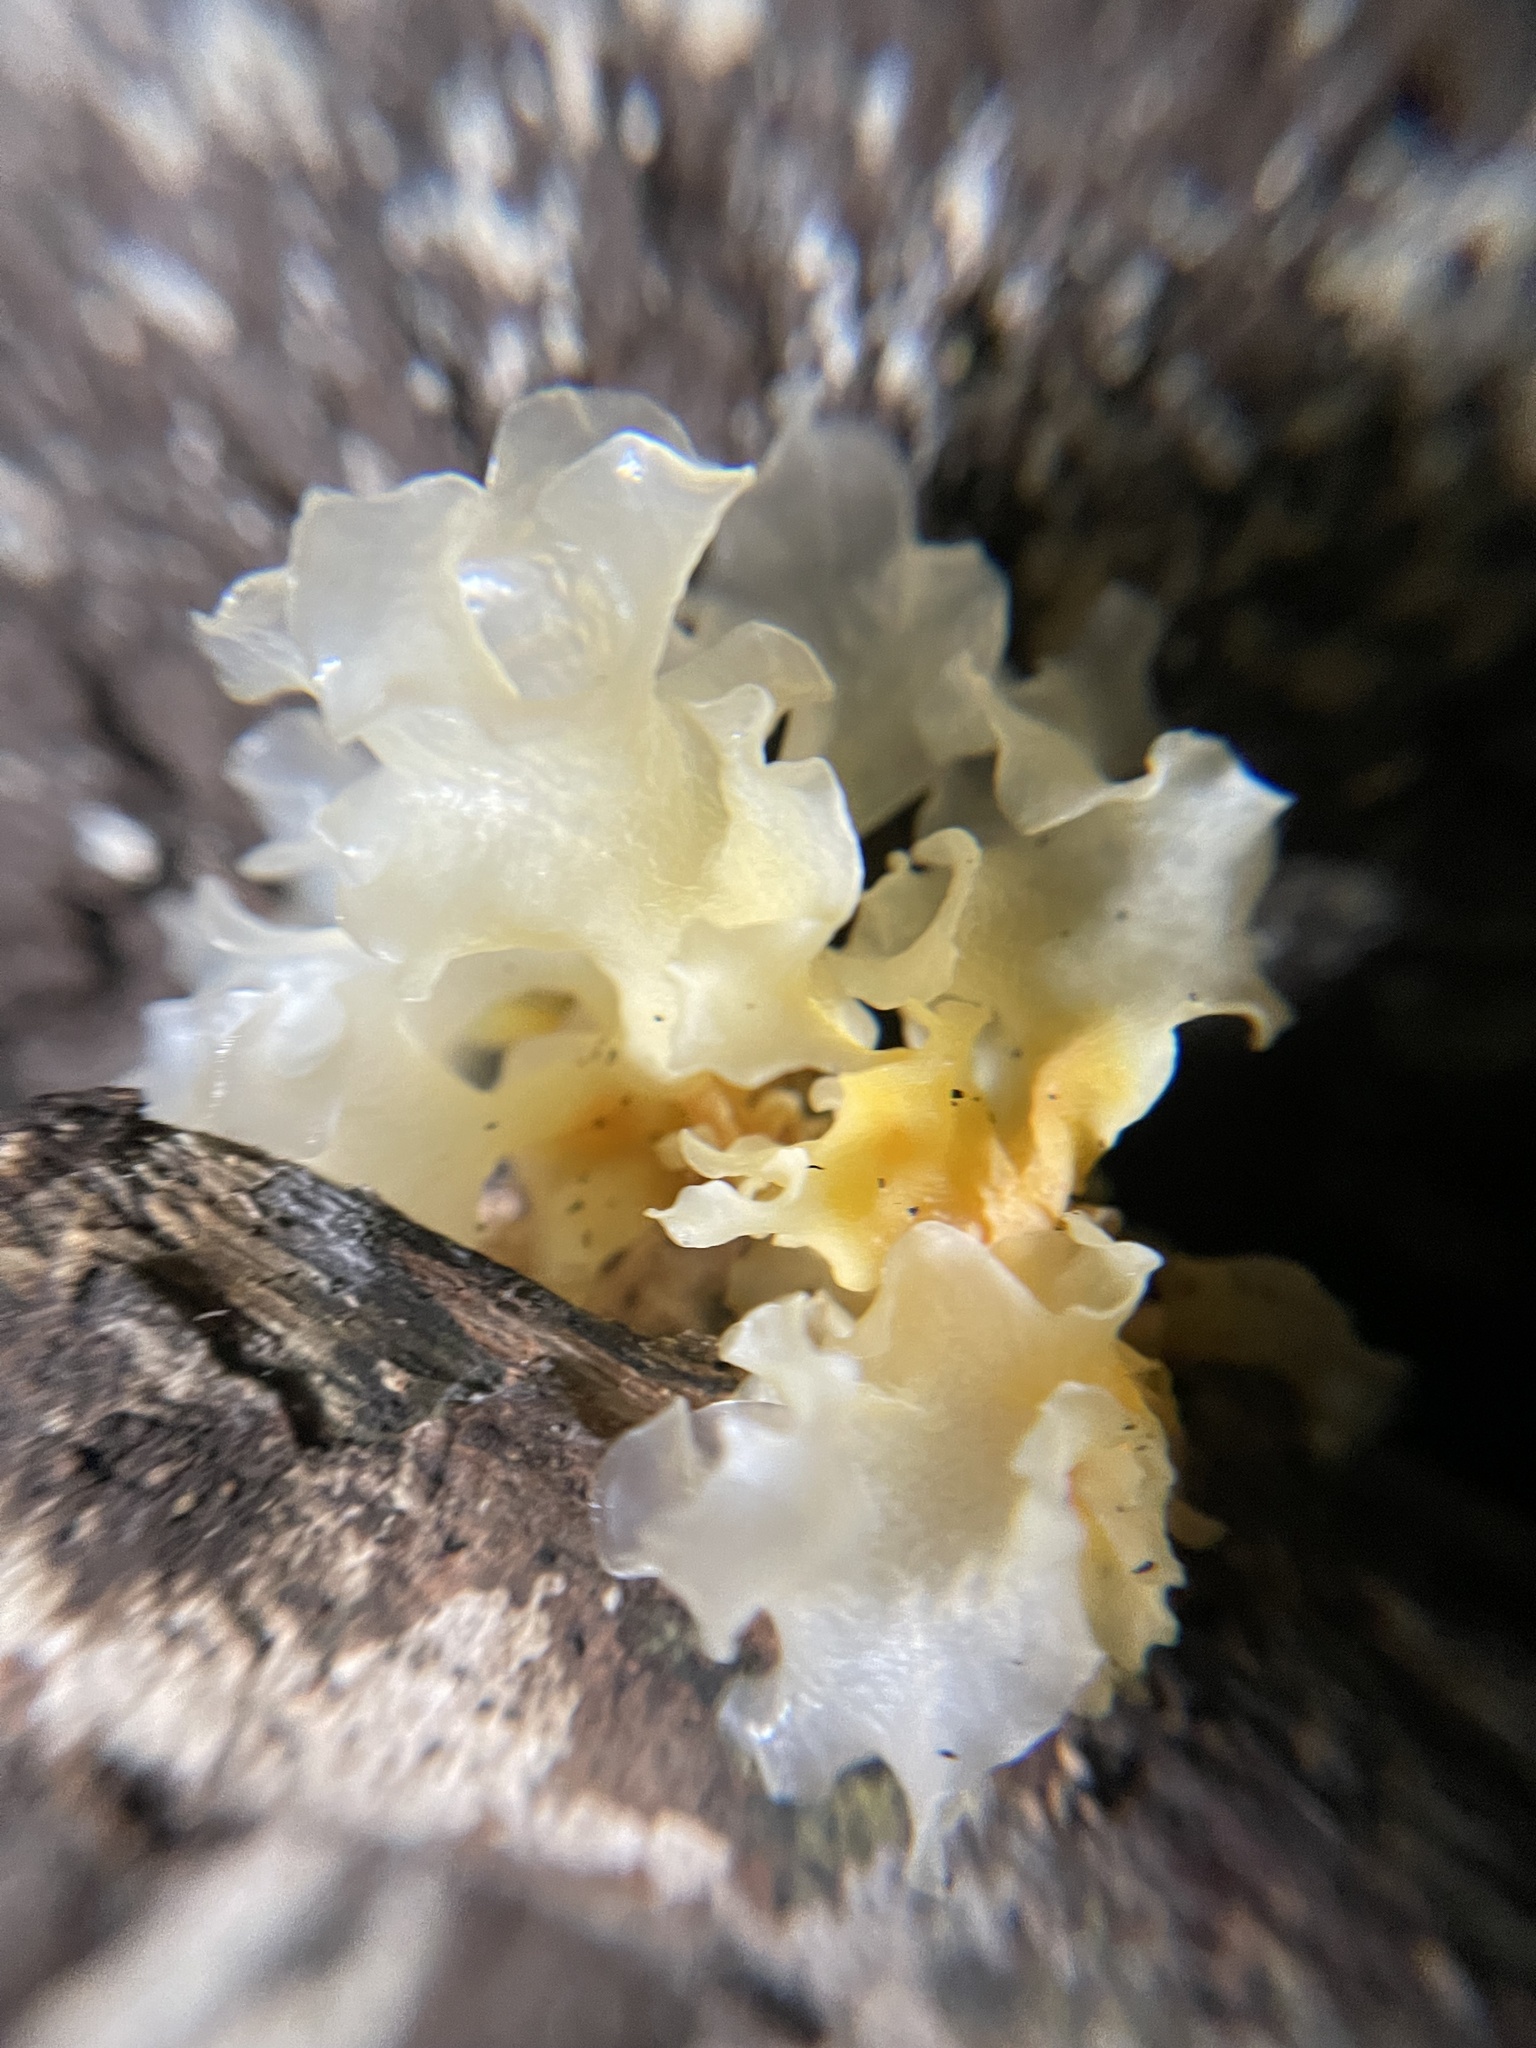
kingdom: Fungi
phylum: Basidiomycota
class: Tremellomycetes
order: Tremellales
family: Tremellaceae
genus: Tremella
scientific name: Tremella fuciformis
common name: Snow fungus
